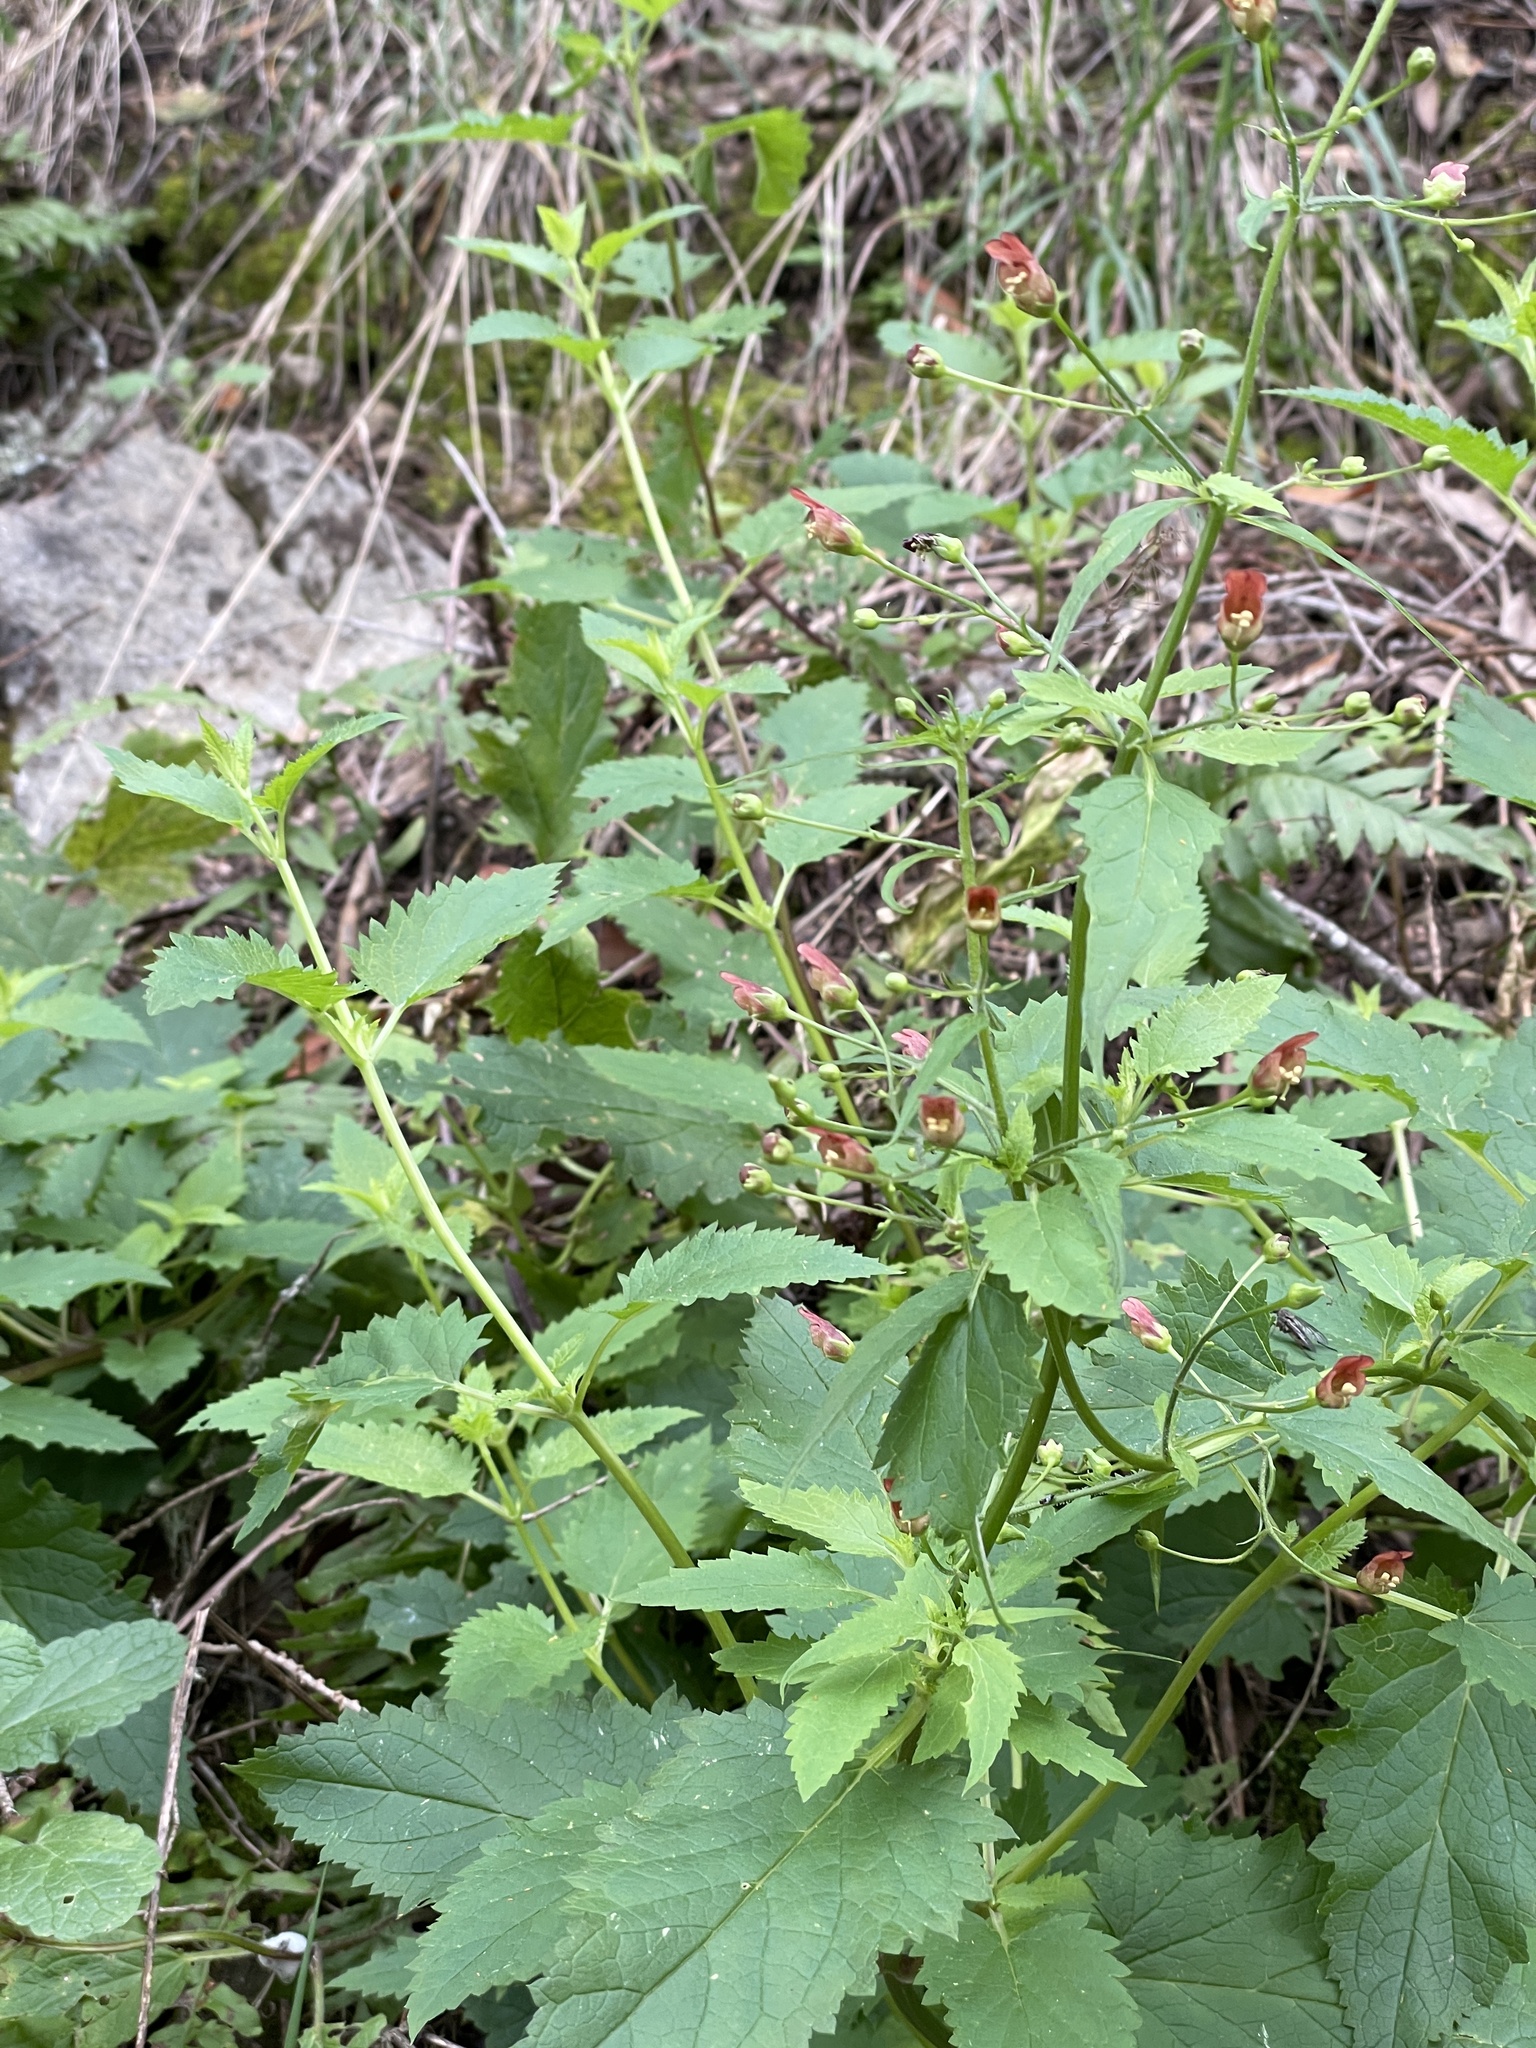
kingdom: Plantae
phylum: Tracheophyta
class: Magnoliopsida
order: Lamiales
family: Scrophulariaceae
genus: Scrophularia
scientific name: Scrophularia californica
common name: California figwort
